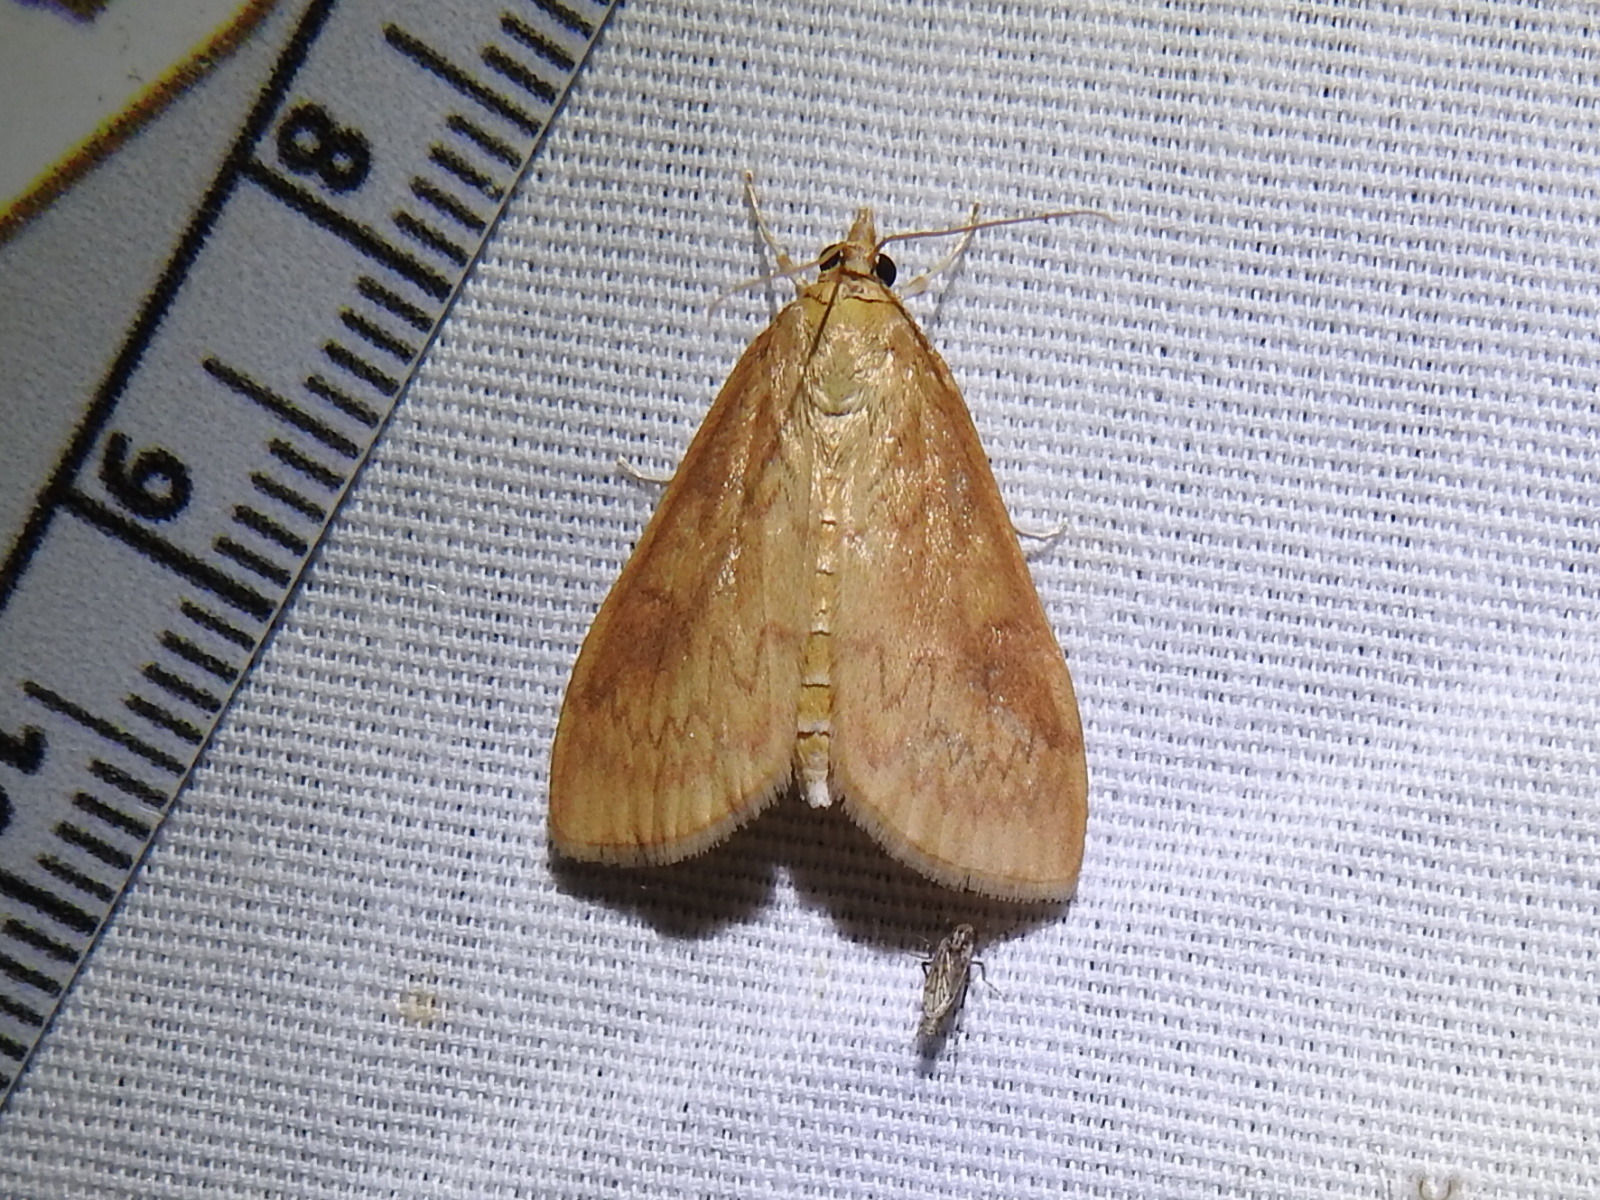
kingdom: Animalia
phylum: Arthropoda
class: Insecta
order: Lepidoptera
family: Crambidae
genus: Ostrinia
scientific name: Ostrinia penitalis
